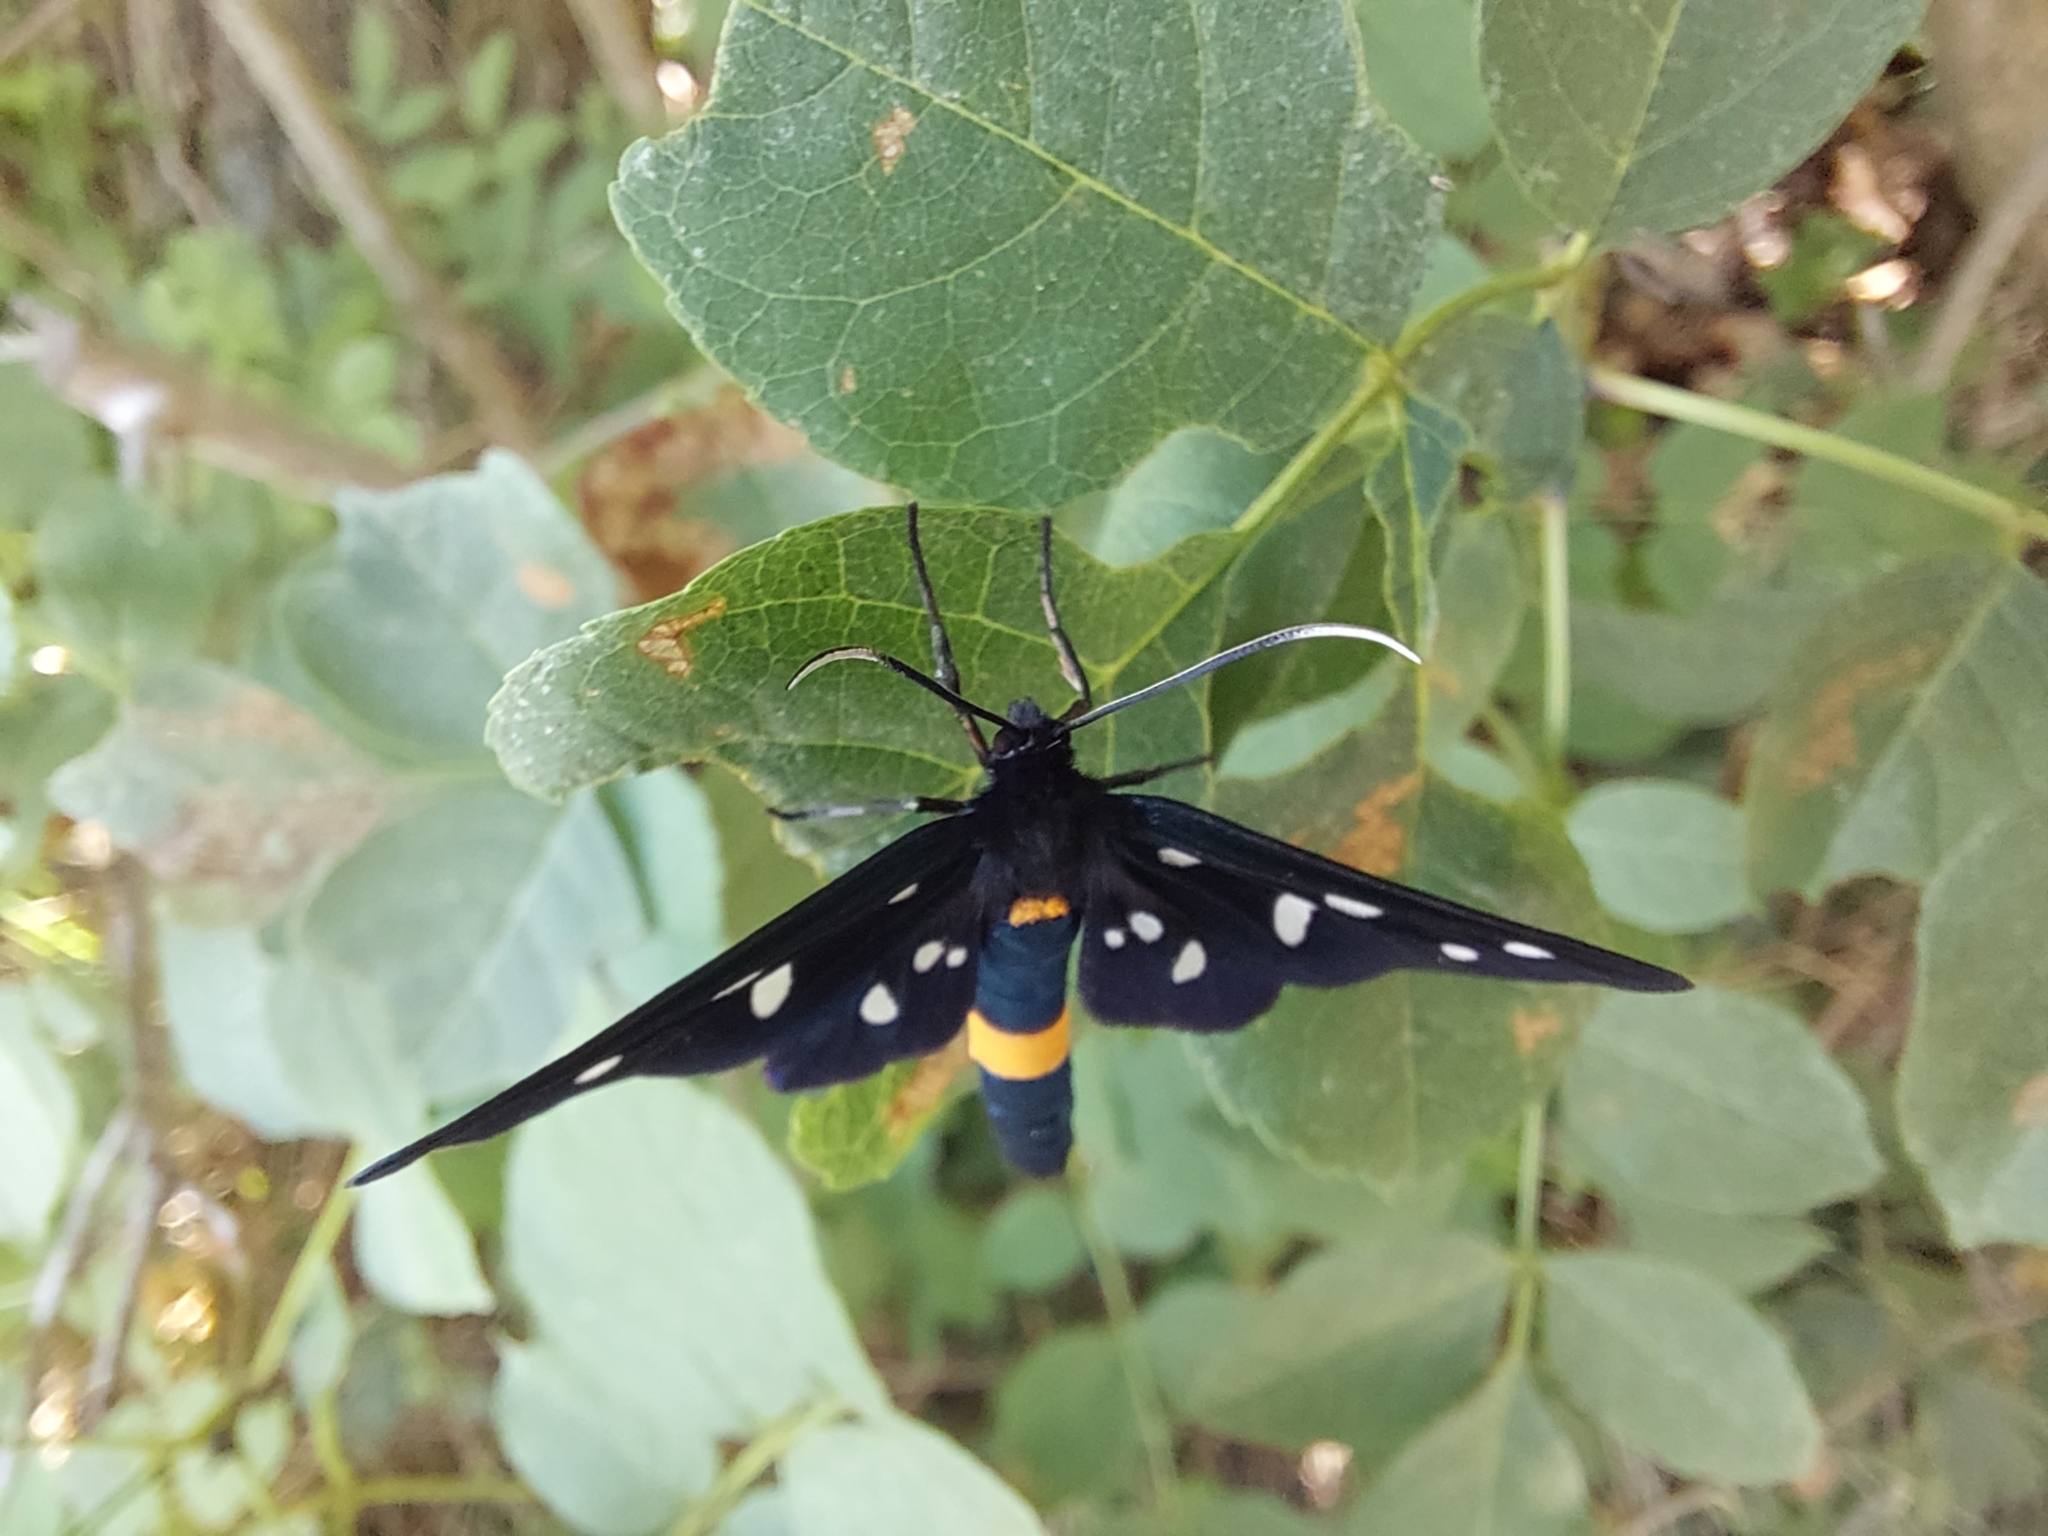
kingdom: Animalia
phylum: Arthropoda
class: Insecta
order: Lepidoptera
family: Erebidae
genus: Amata
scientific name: Amata phegea
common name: Nine-spotted
